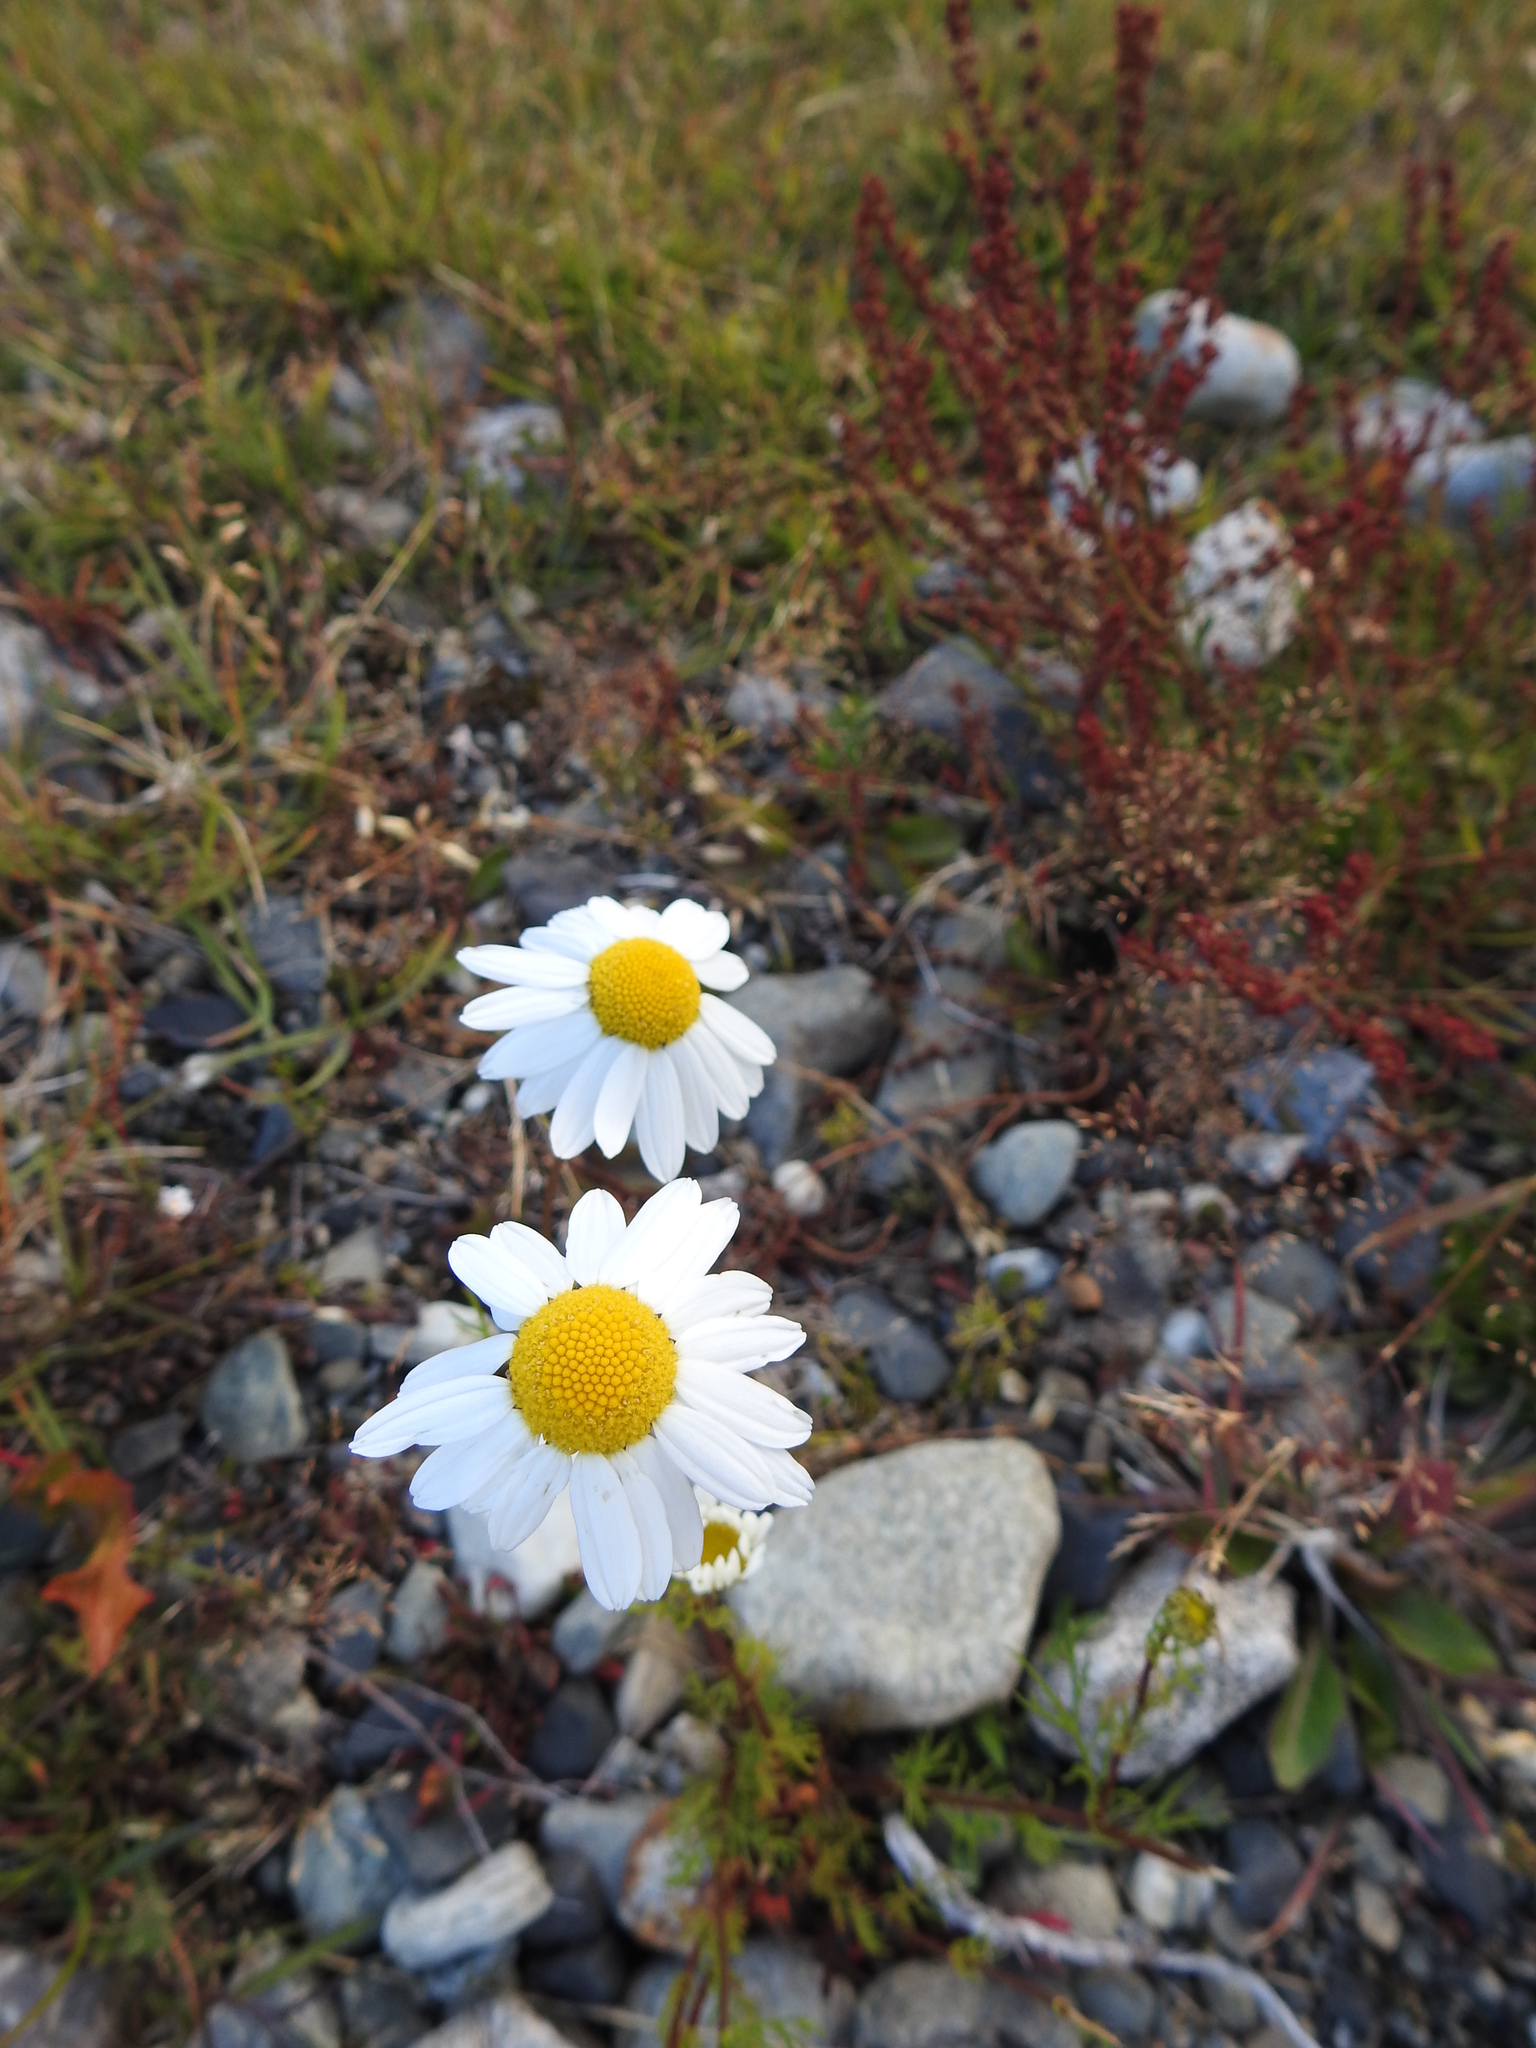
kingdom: Plantae
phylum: Tracheophyta
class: Magnoliopsida
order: Asterales
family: Asteraceae
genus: Tripleurospermum
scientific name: Tripleurospermum maritimum
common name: Sea mayweed
